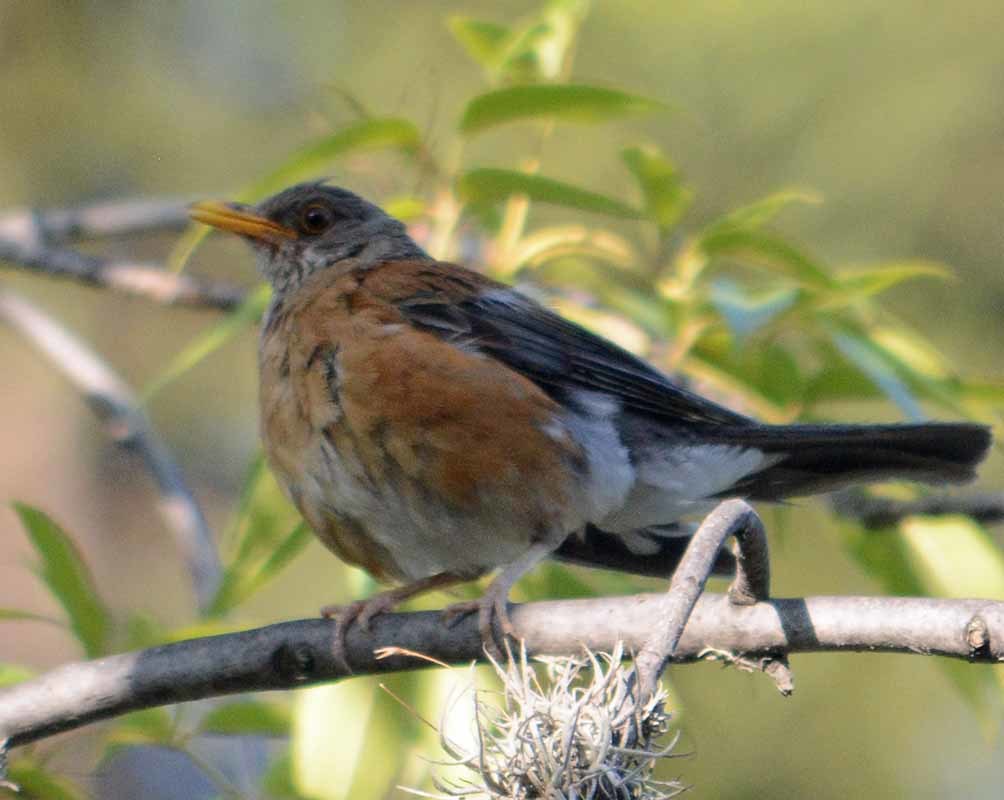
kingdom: Animalia
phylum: Chordata
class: Aves
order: Passeriformes
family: Turdidae
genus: Turdus
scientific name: Turdus rufopalliatus
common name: Rufous-backed robin
